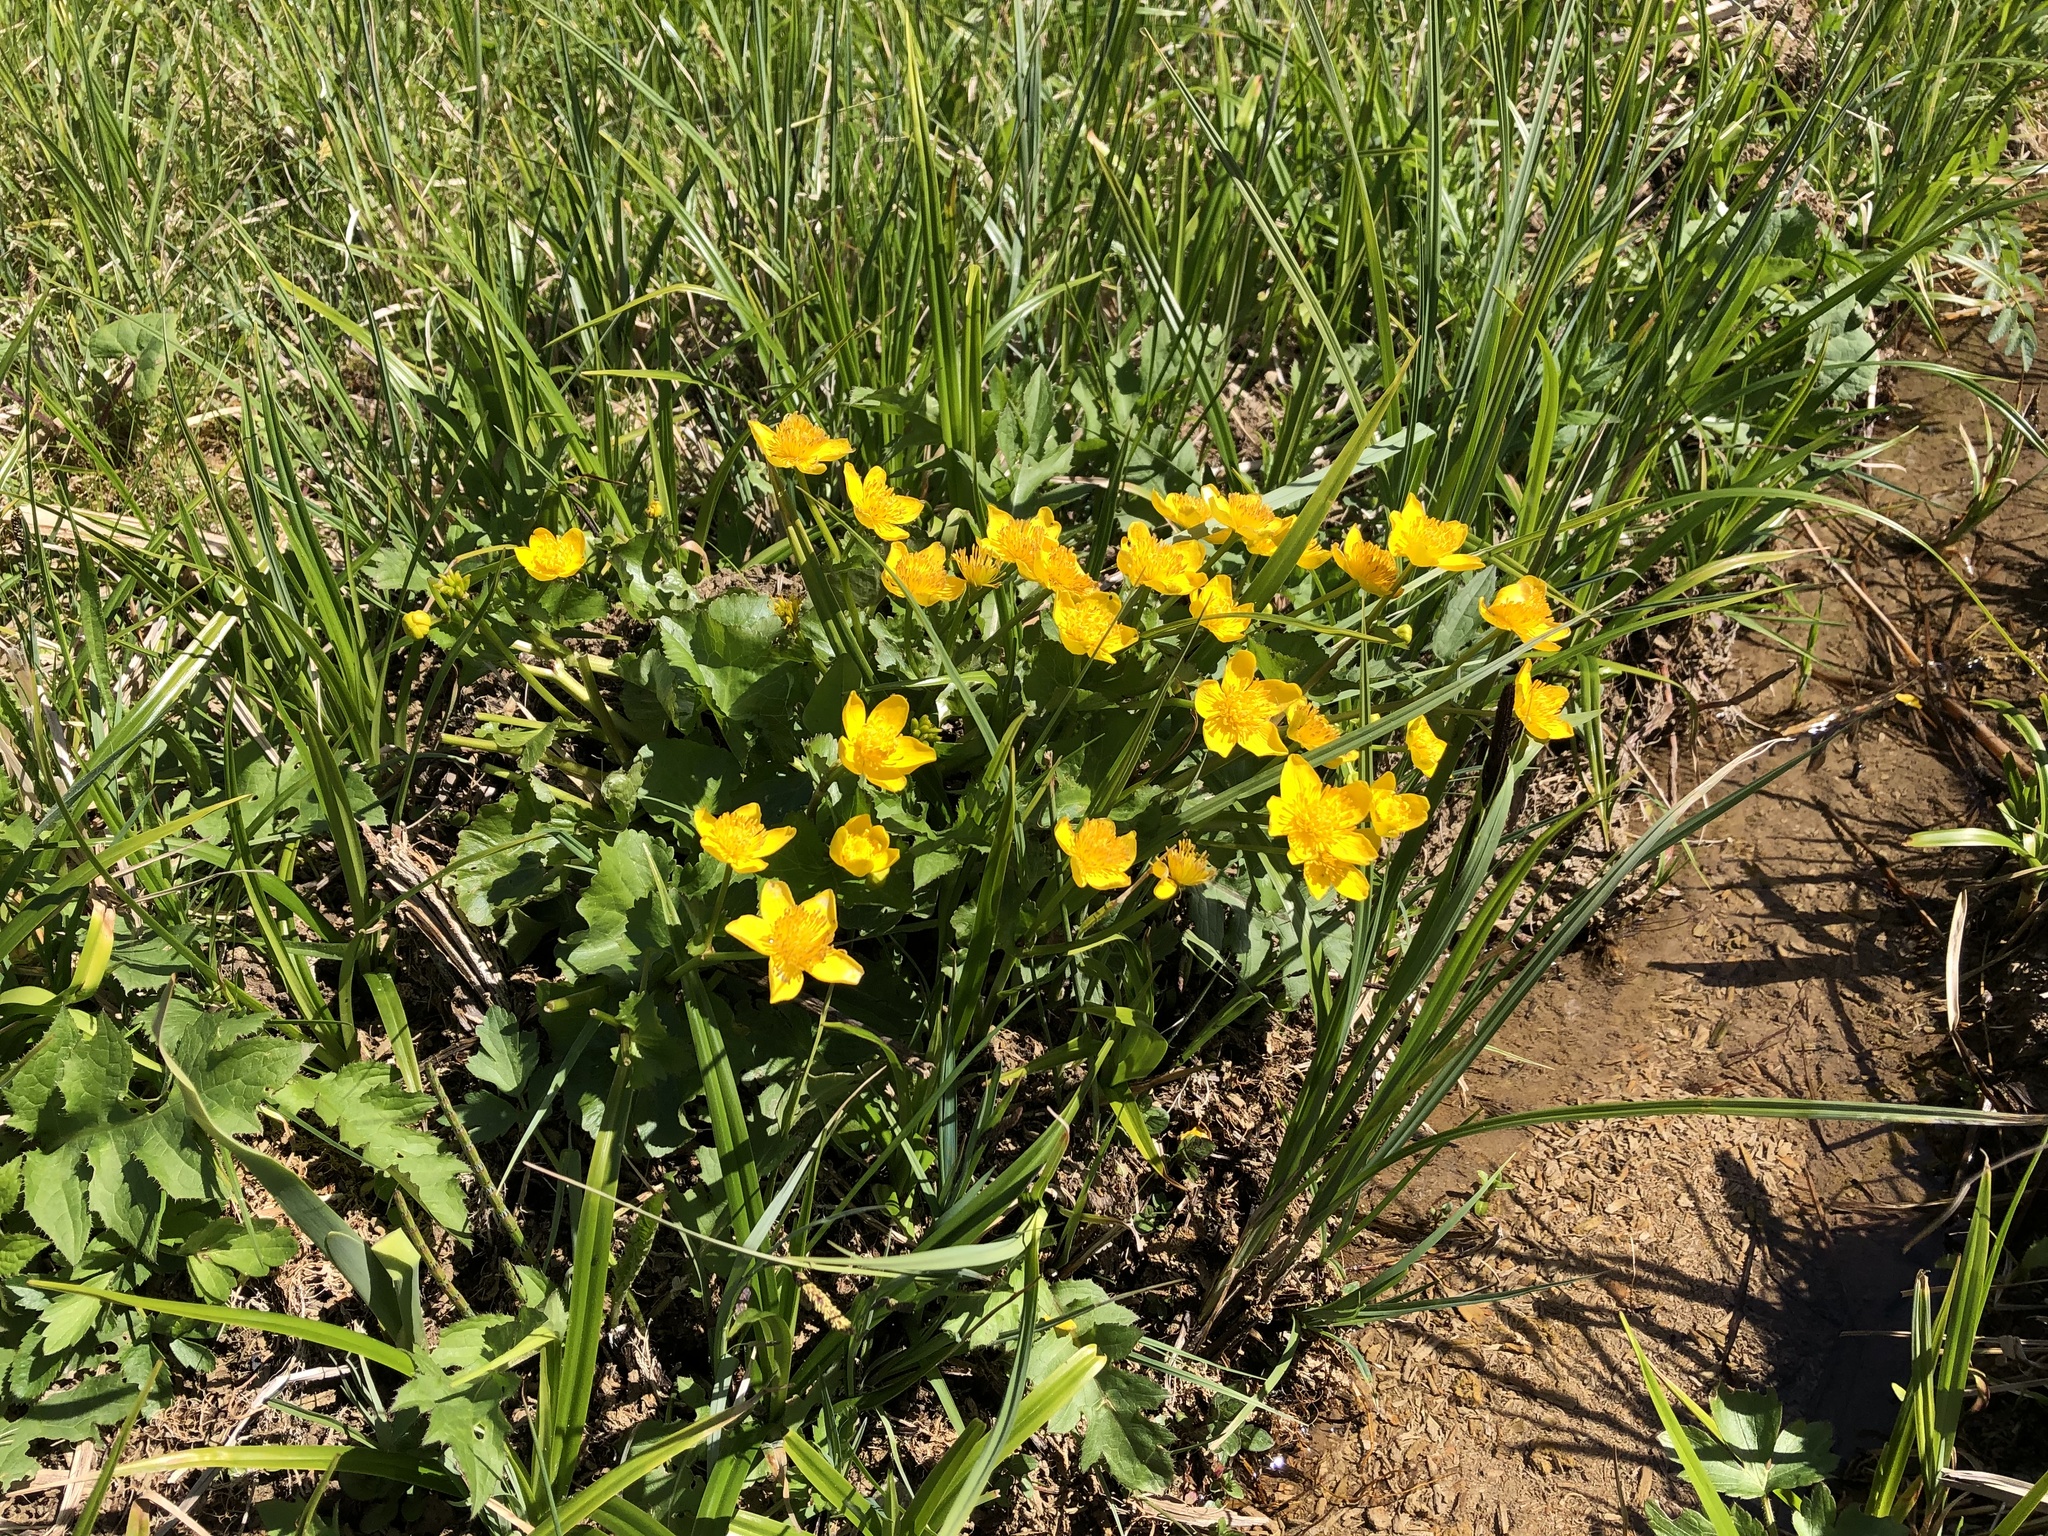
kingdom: Plantae
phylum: Tracheophyta
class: Magnoliopsida
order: Ranunculales
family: Ranunculaceae
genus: Caltha
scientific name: Caltha palustris
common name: Marsh marigold
